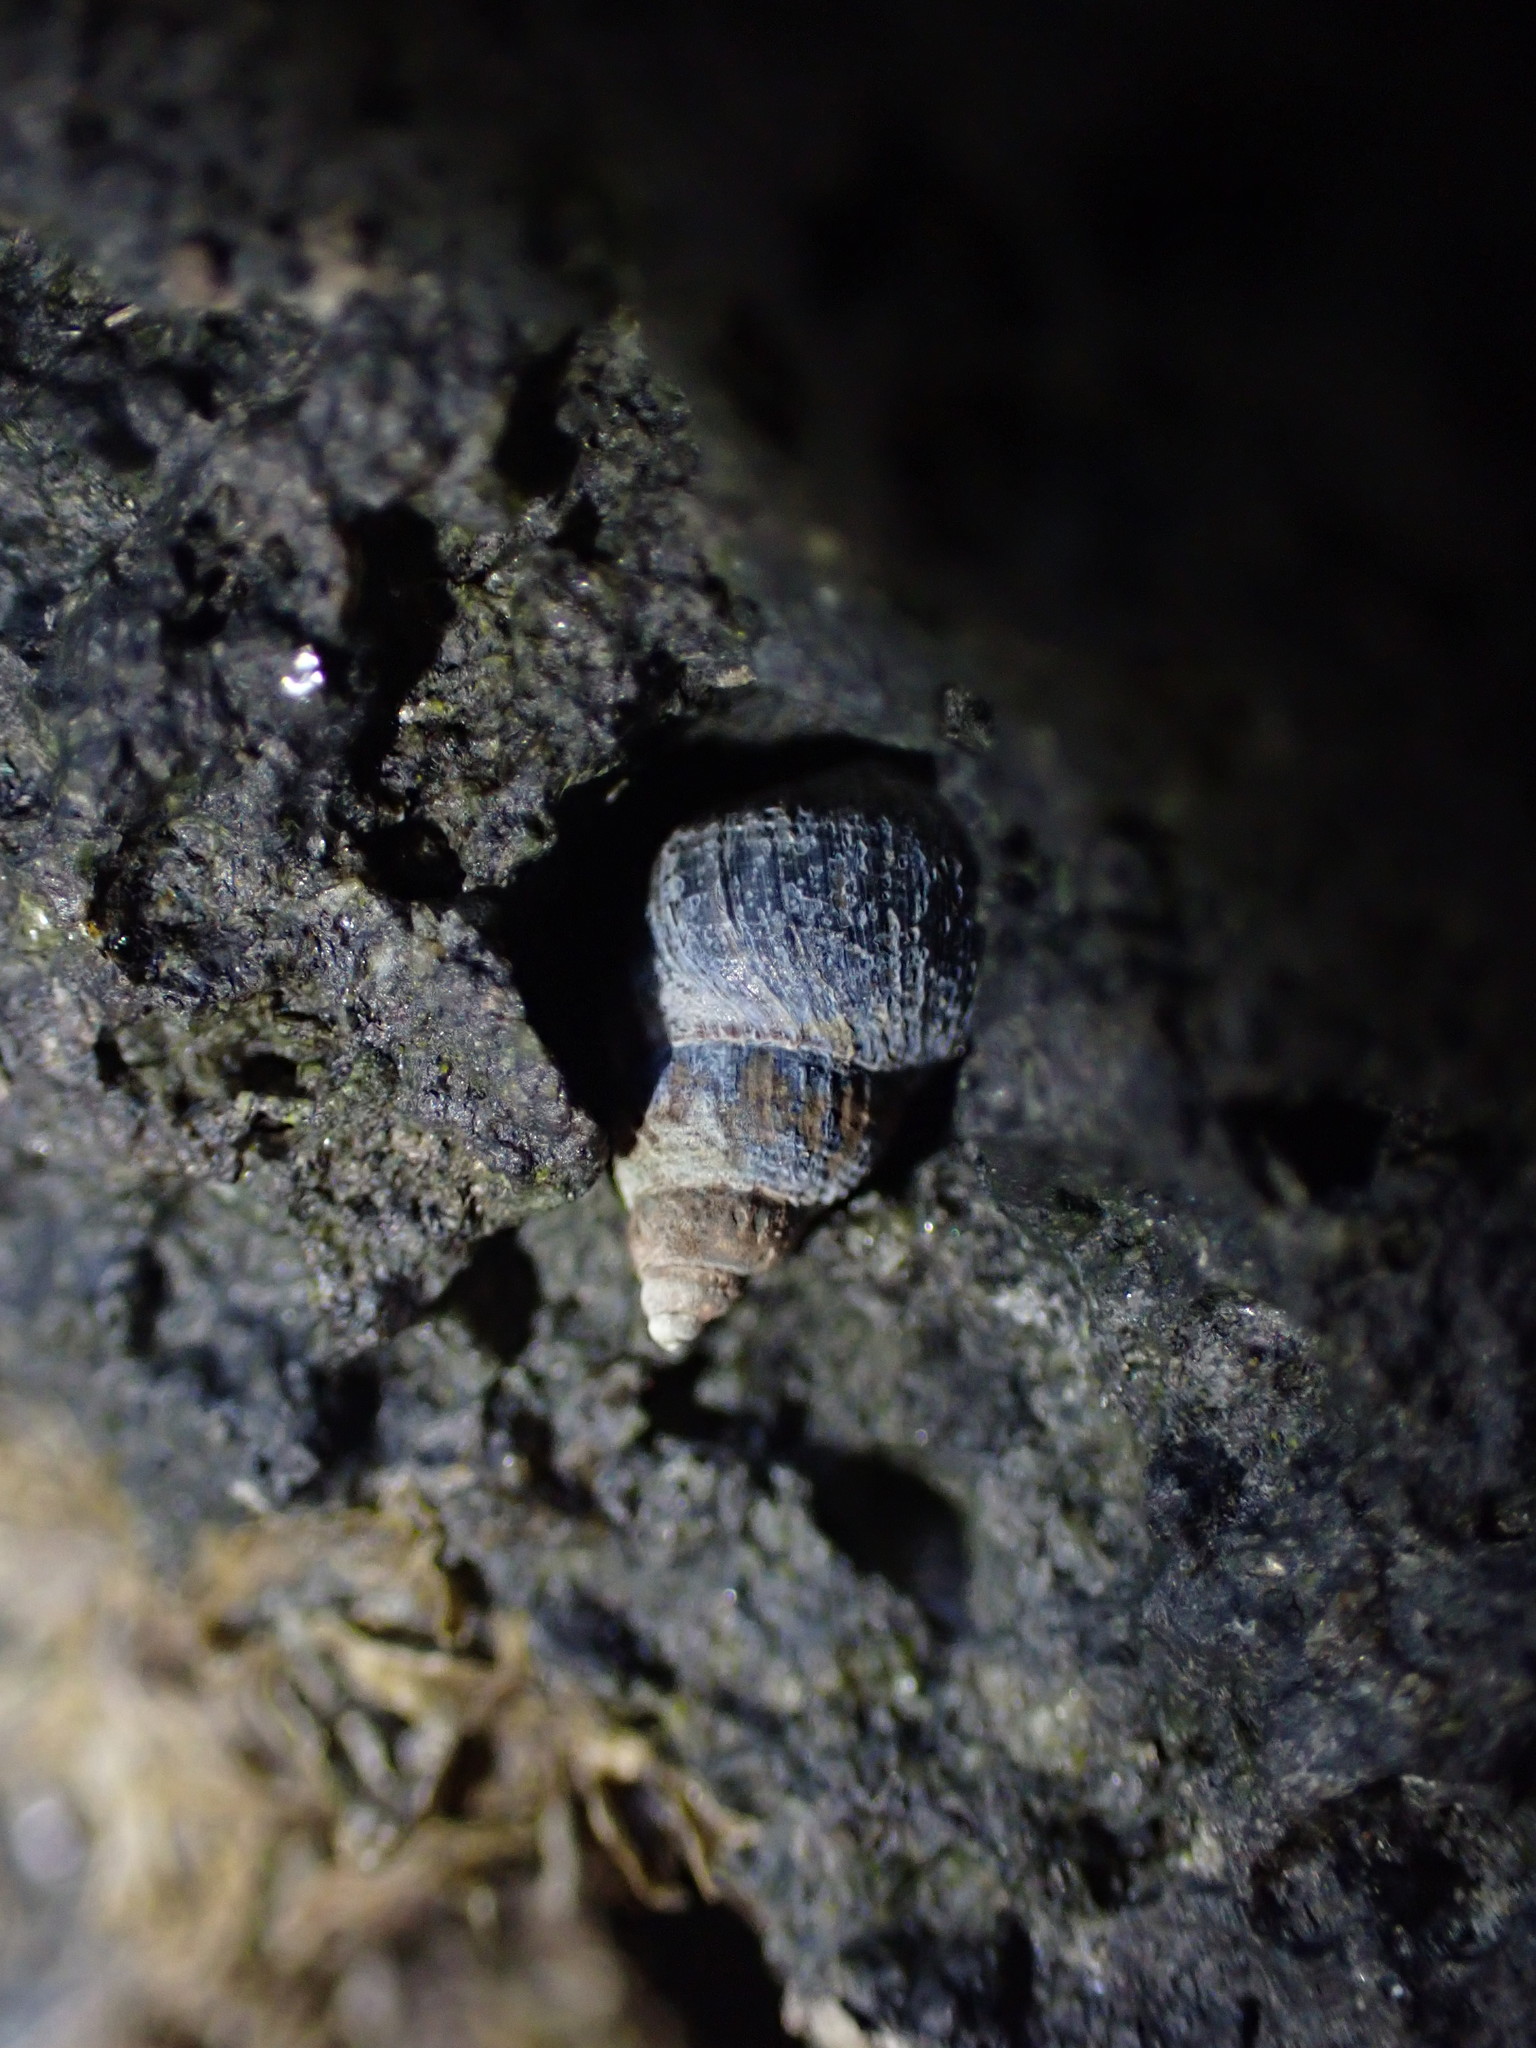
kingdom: Animalia
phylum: Mollusca
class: Gastropoda
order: Littorinimorpha
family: Littorinidae
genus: Austrolittorina
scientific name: Austrolittorina antipodum
